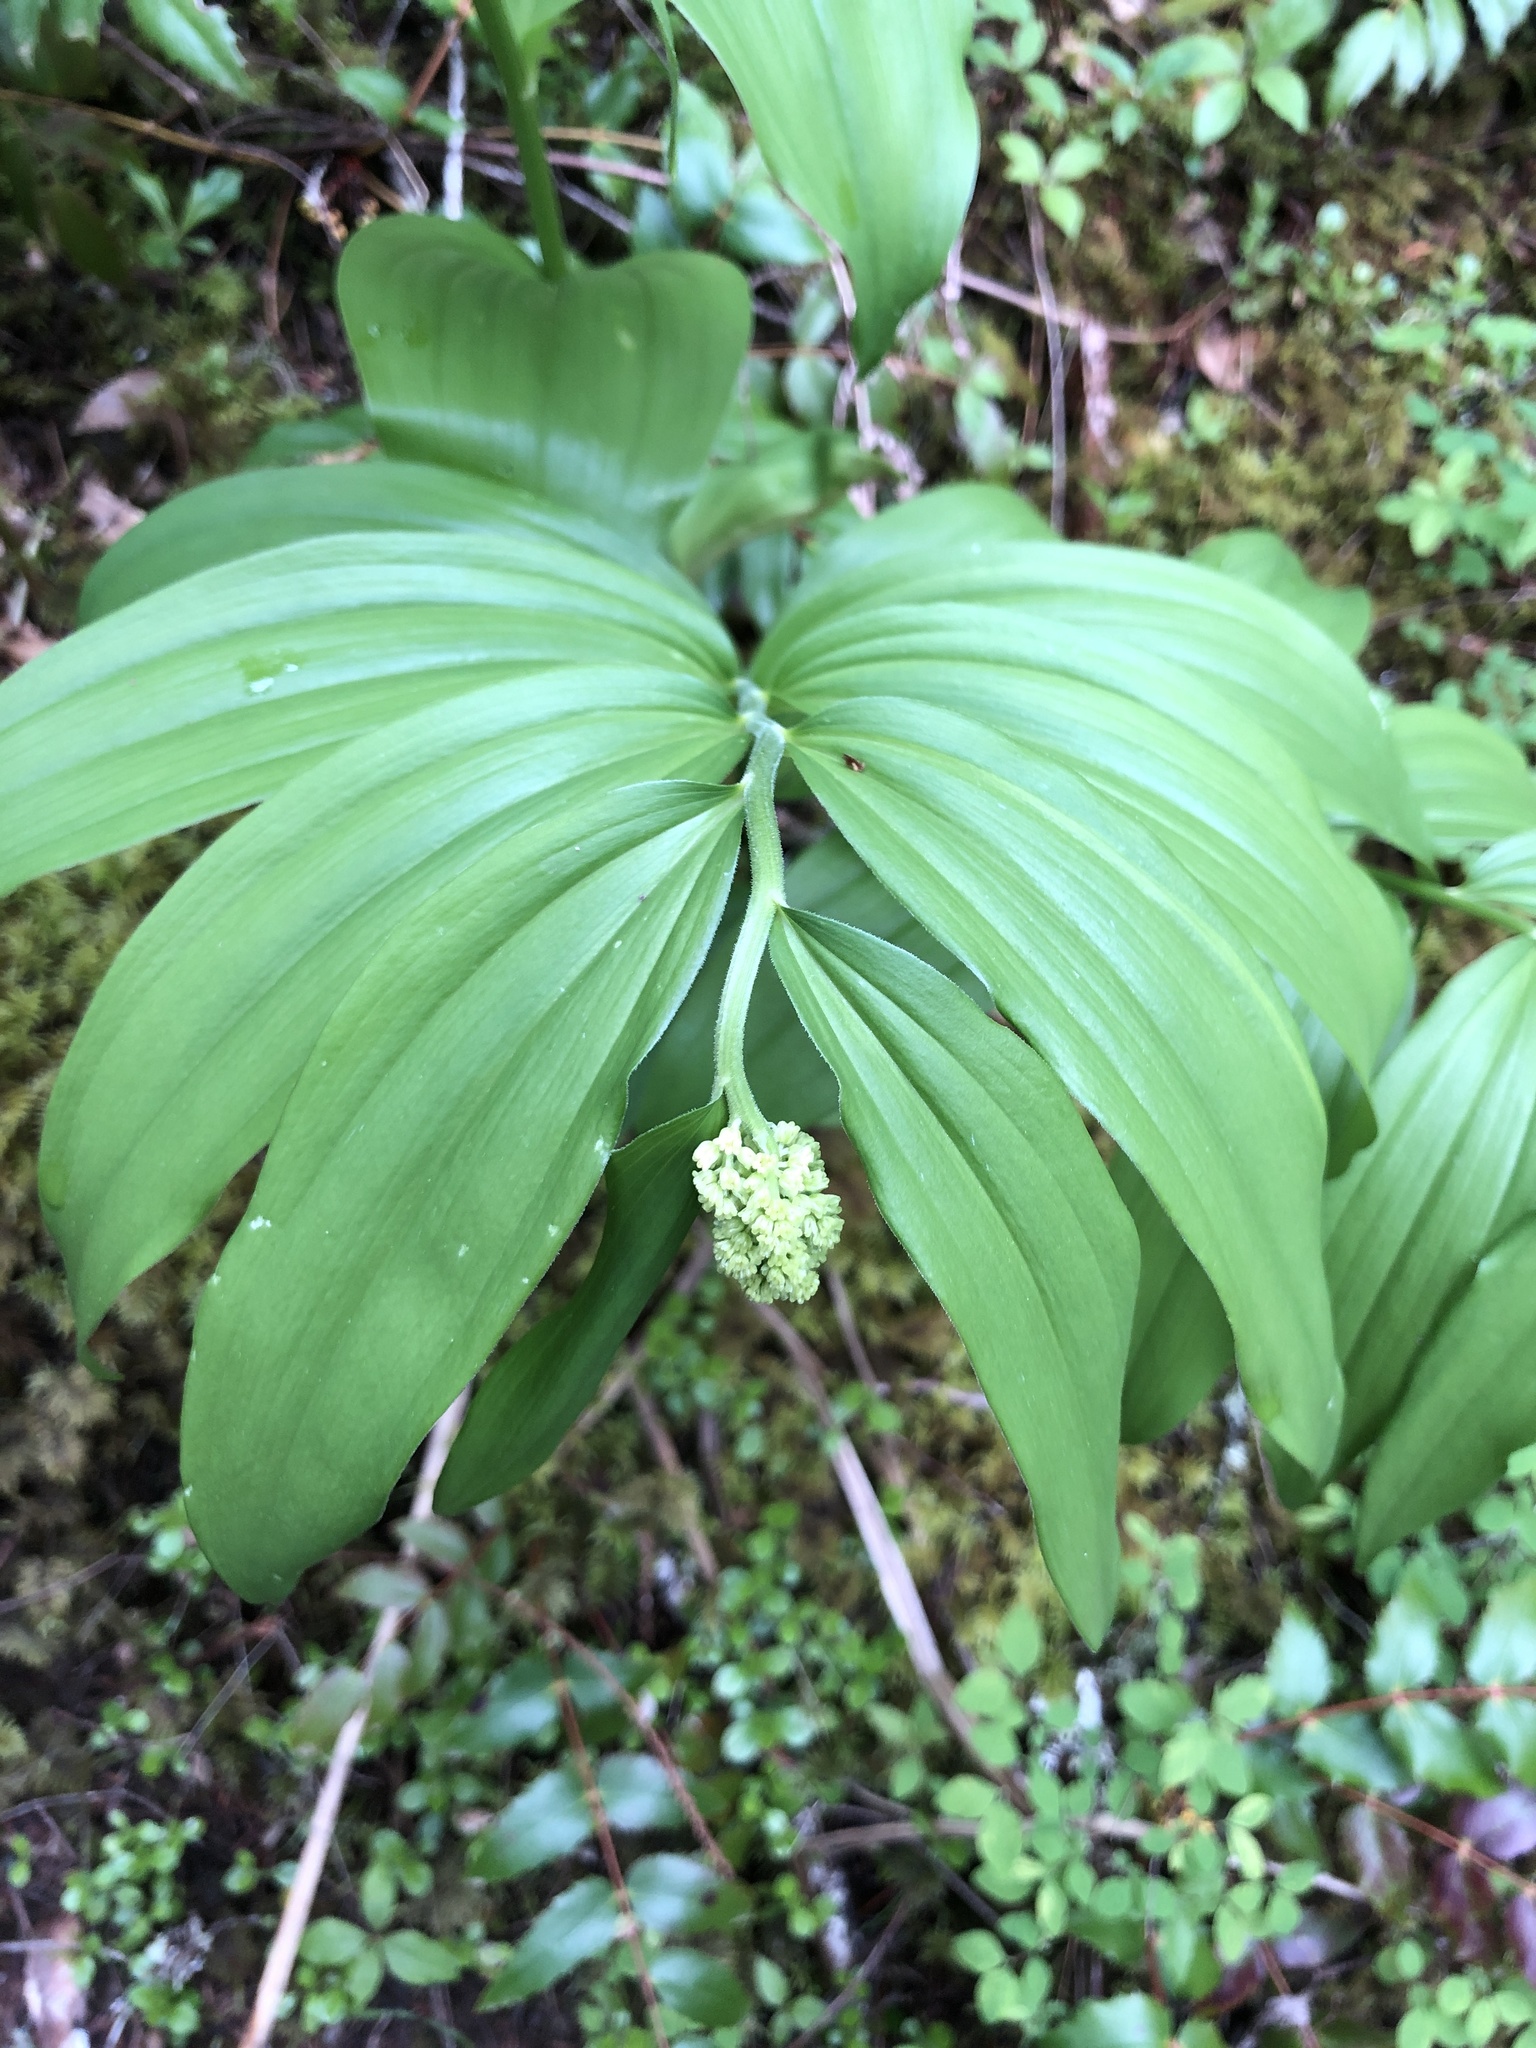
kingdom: Plantae
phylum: Tracheophyta
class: Liliopsida
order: Asparagales
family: Asparagaceae
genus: Maianthemum
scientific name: Maianthemum racemosum
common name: False spikenard
